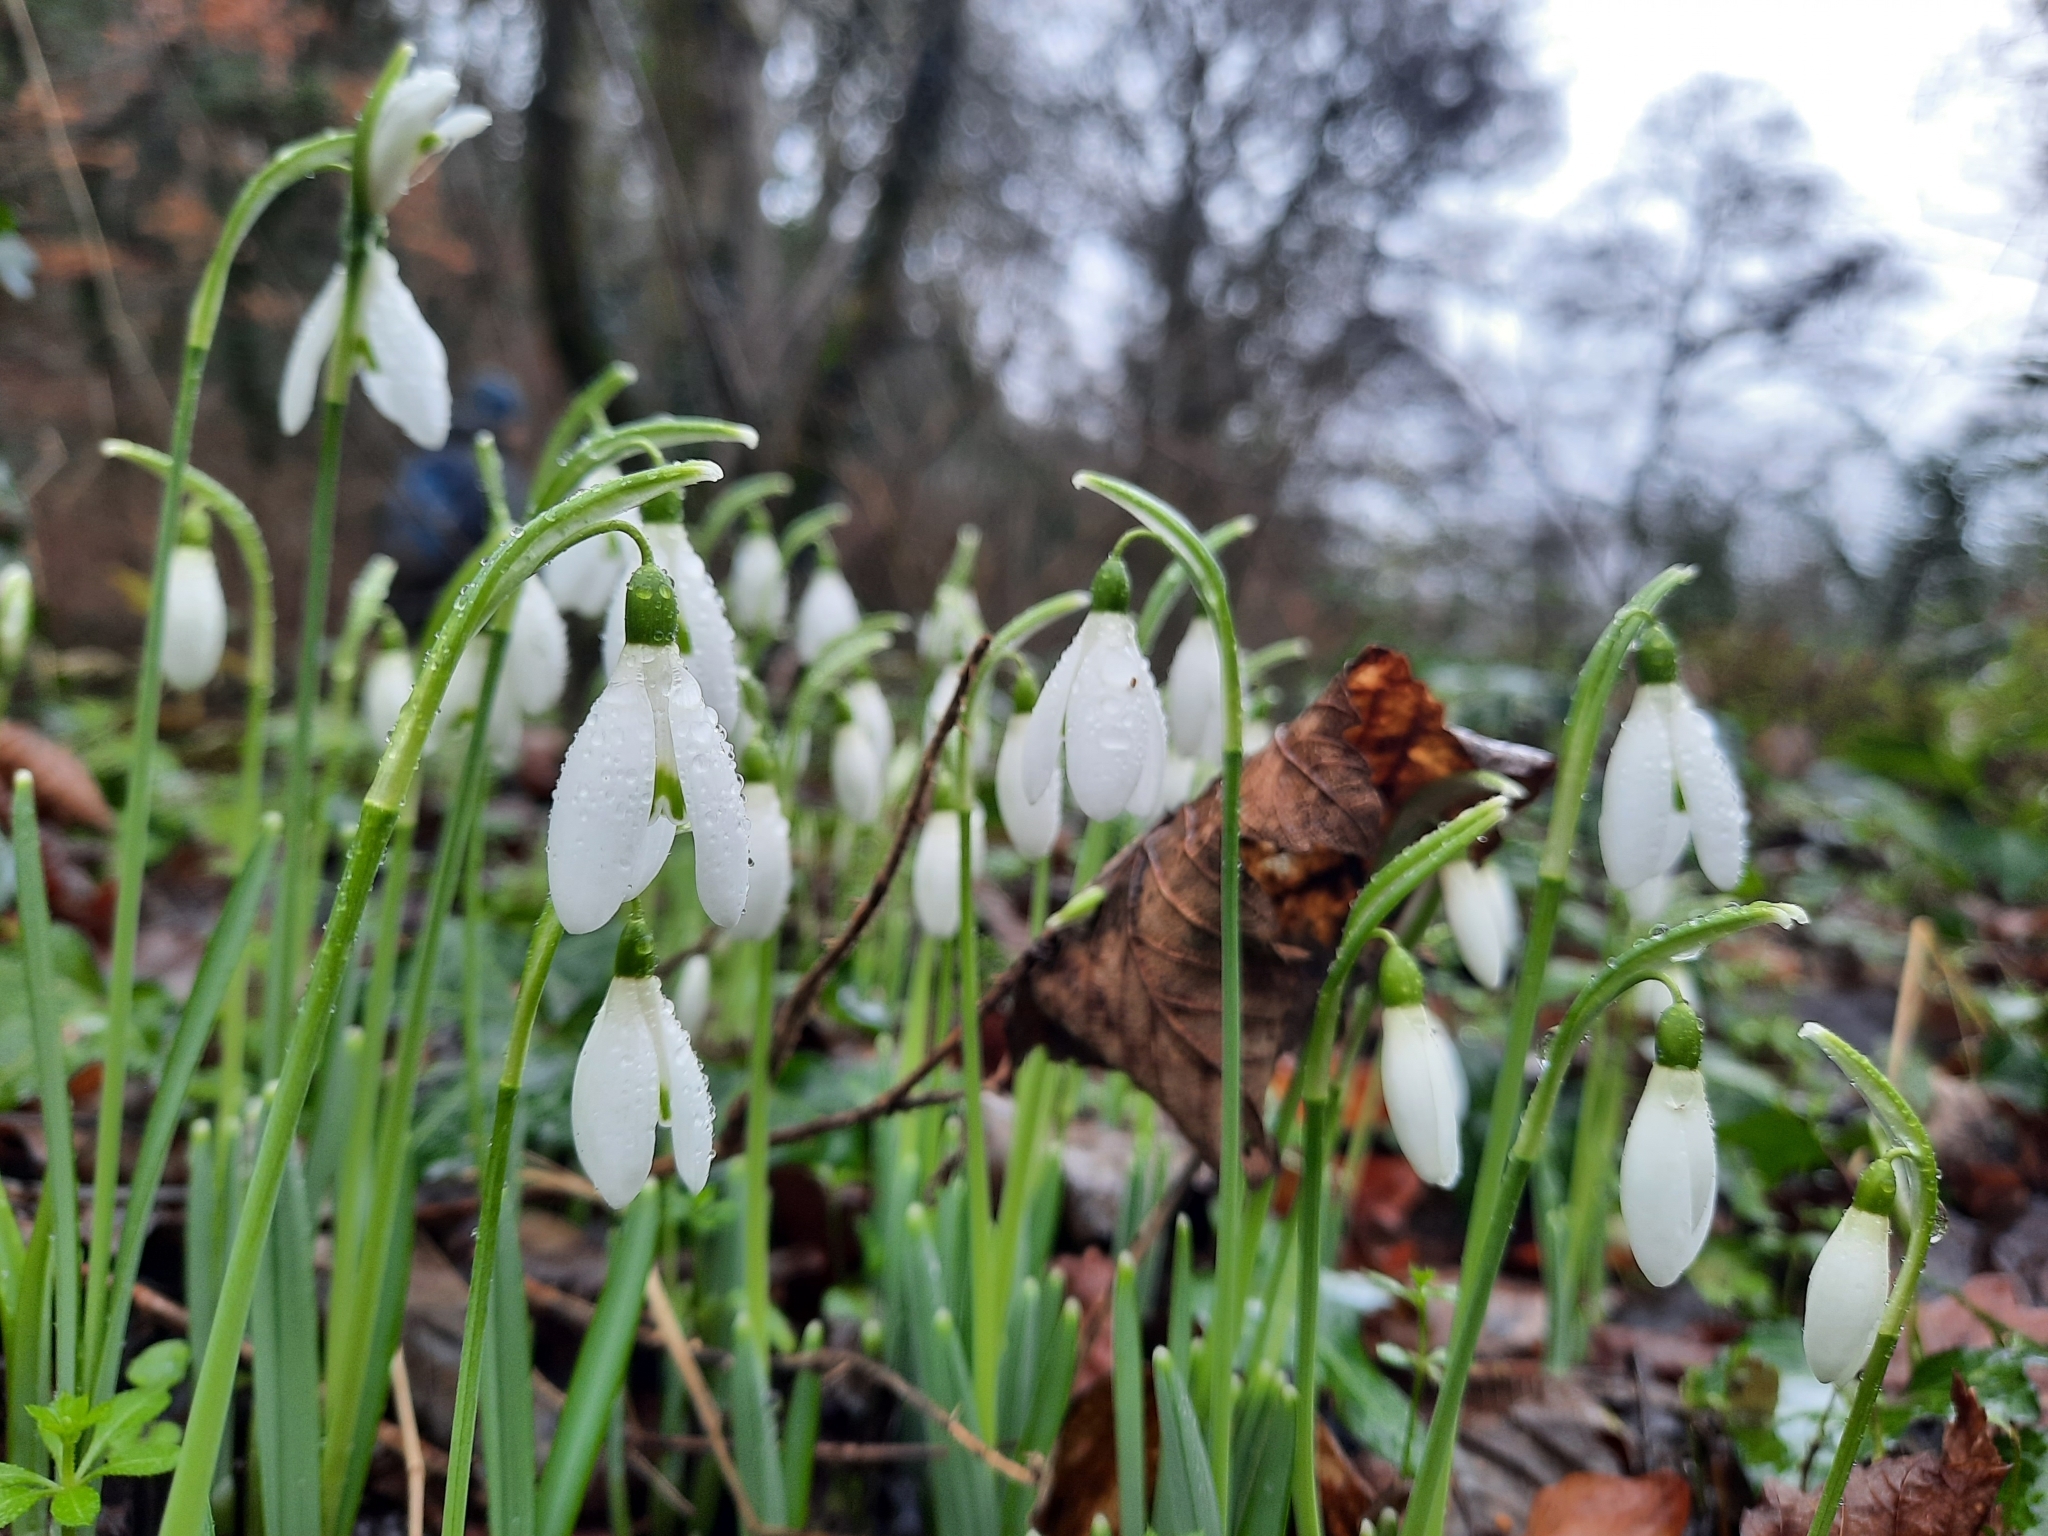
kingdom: Plantae
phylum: Tracheophyta
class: Liliopsida
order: Asparagales
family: Amaryllidaceae
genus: Galanthus
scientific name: Galanthus nivalis
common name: Snowdrop
